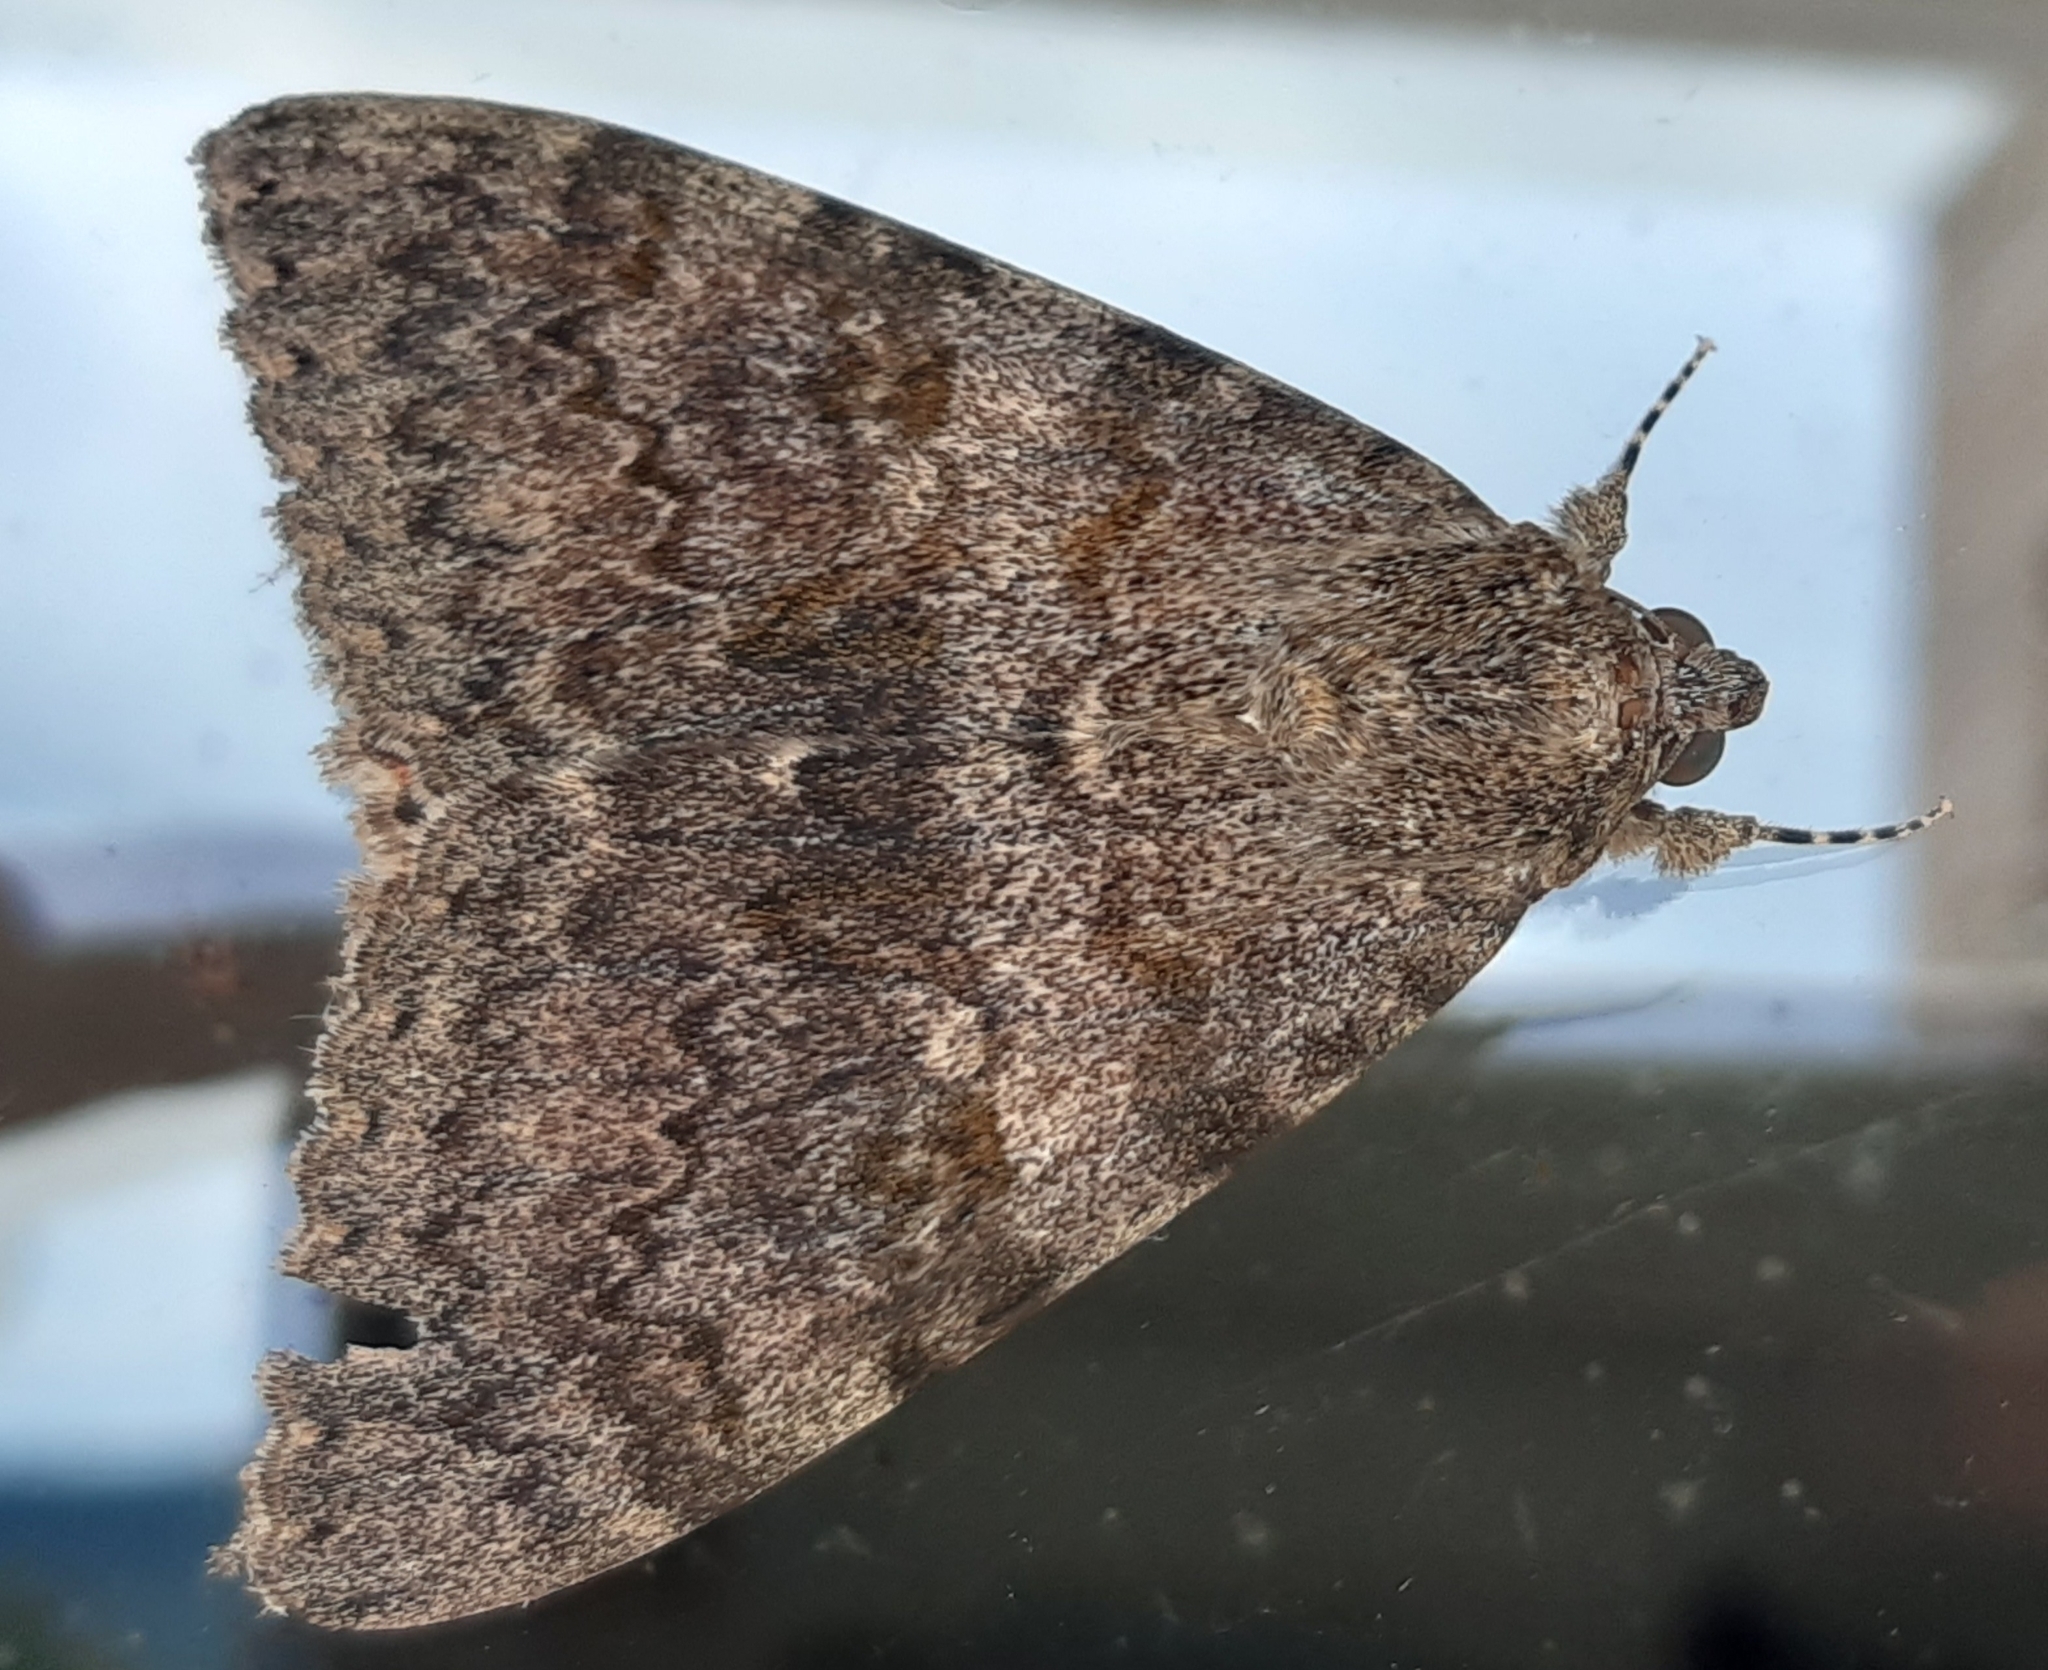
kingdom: Animalia
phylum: Arthropoda
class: Insecta
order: Lepidoptera
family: Erebidae
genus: Catocala
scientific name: Catocala elocata
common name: French red underwing
